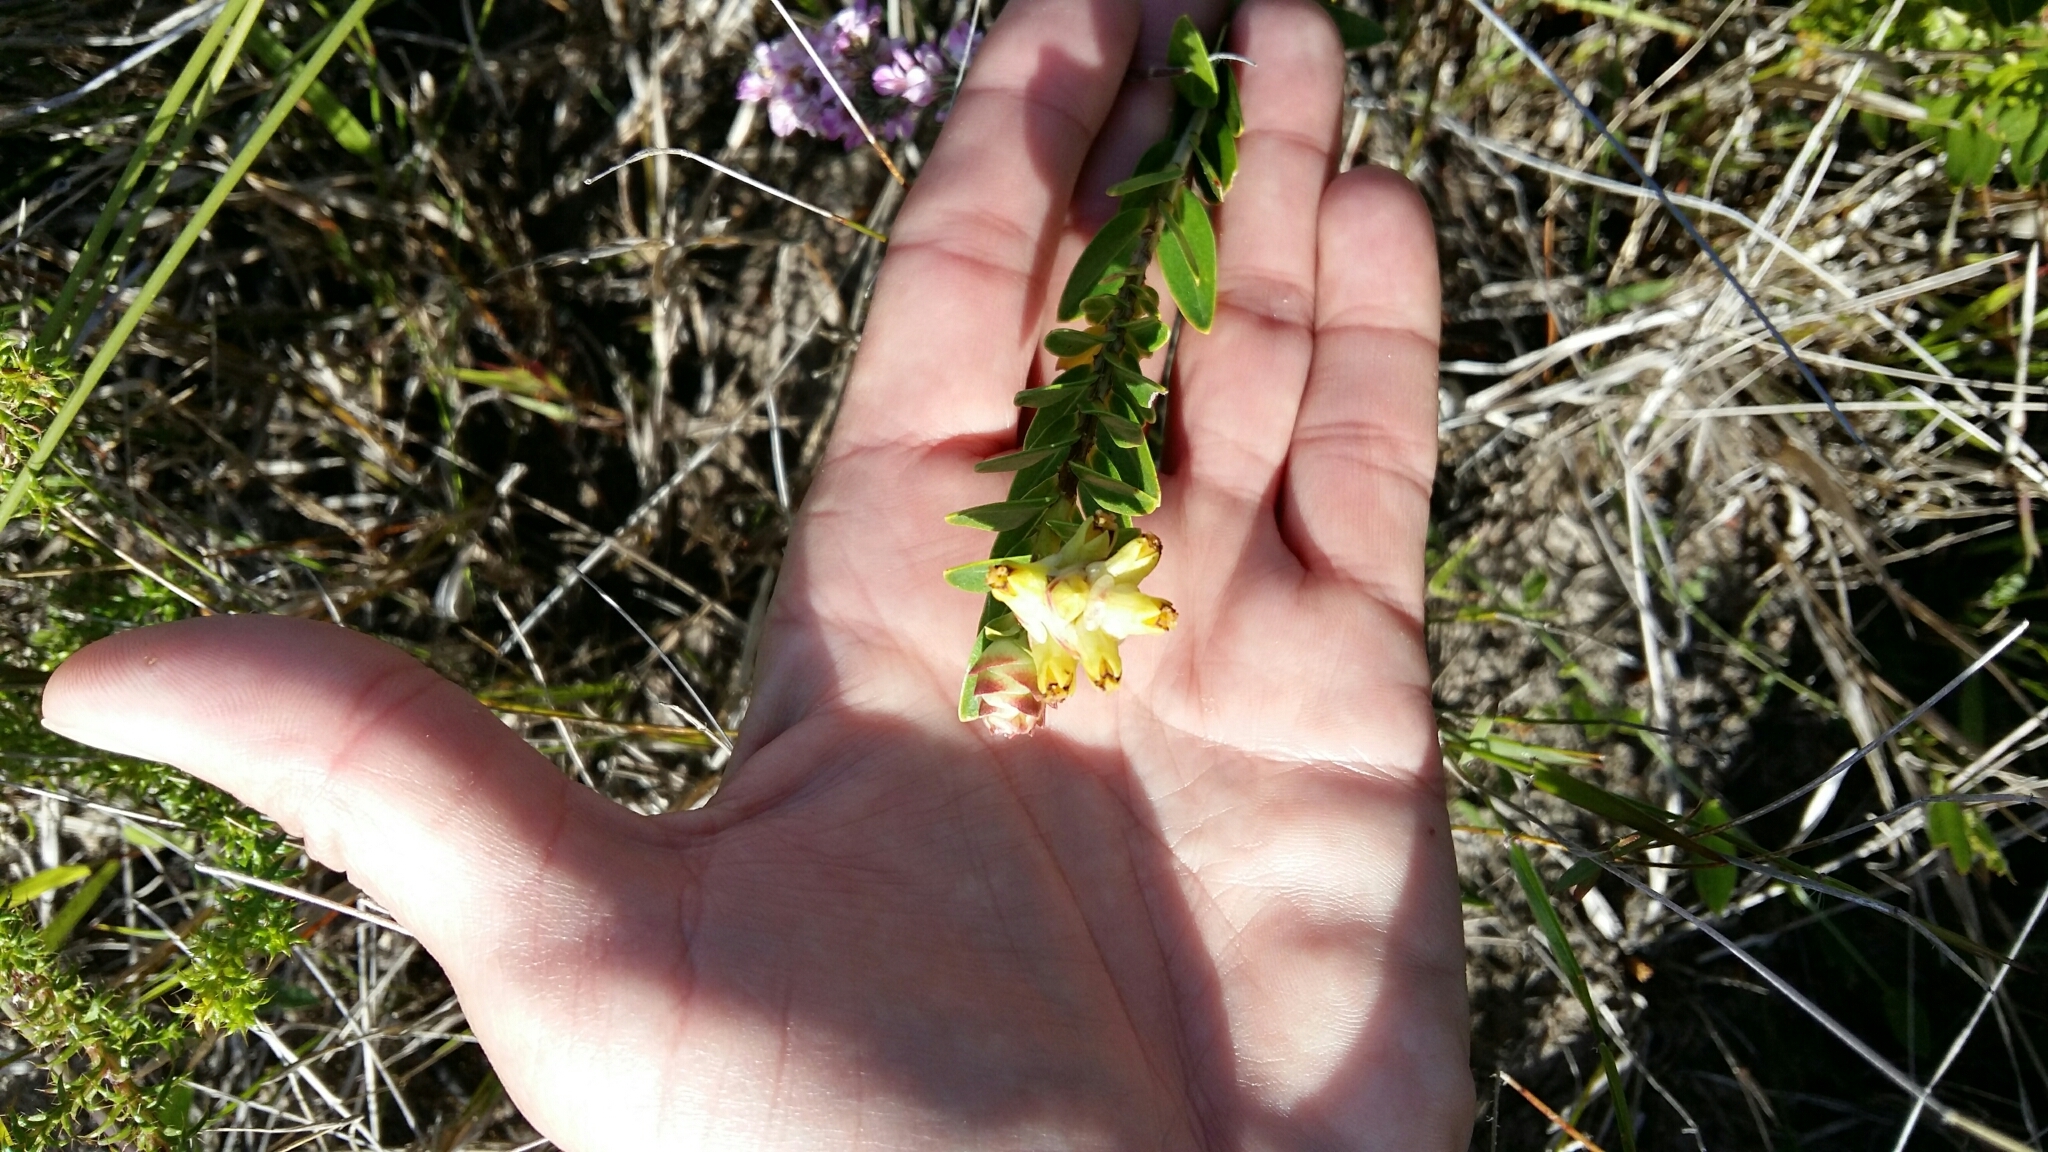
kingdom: Plantae
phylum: Tracheophyta
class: Magnoliopsida
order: Myrtales
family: Penaeaceae
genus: Penaea
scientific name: Penaea cneorum
